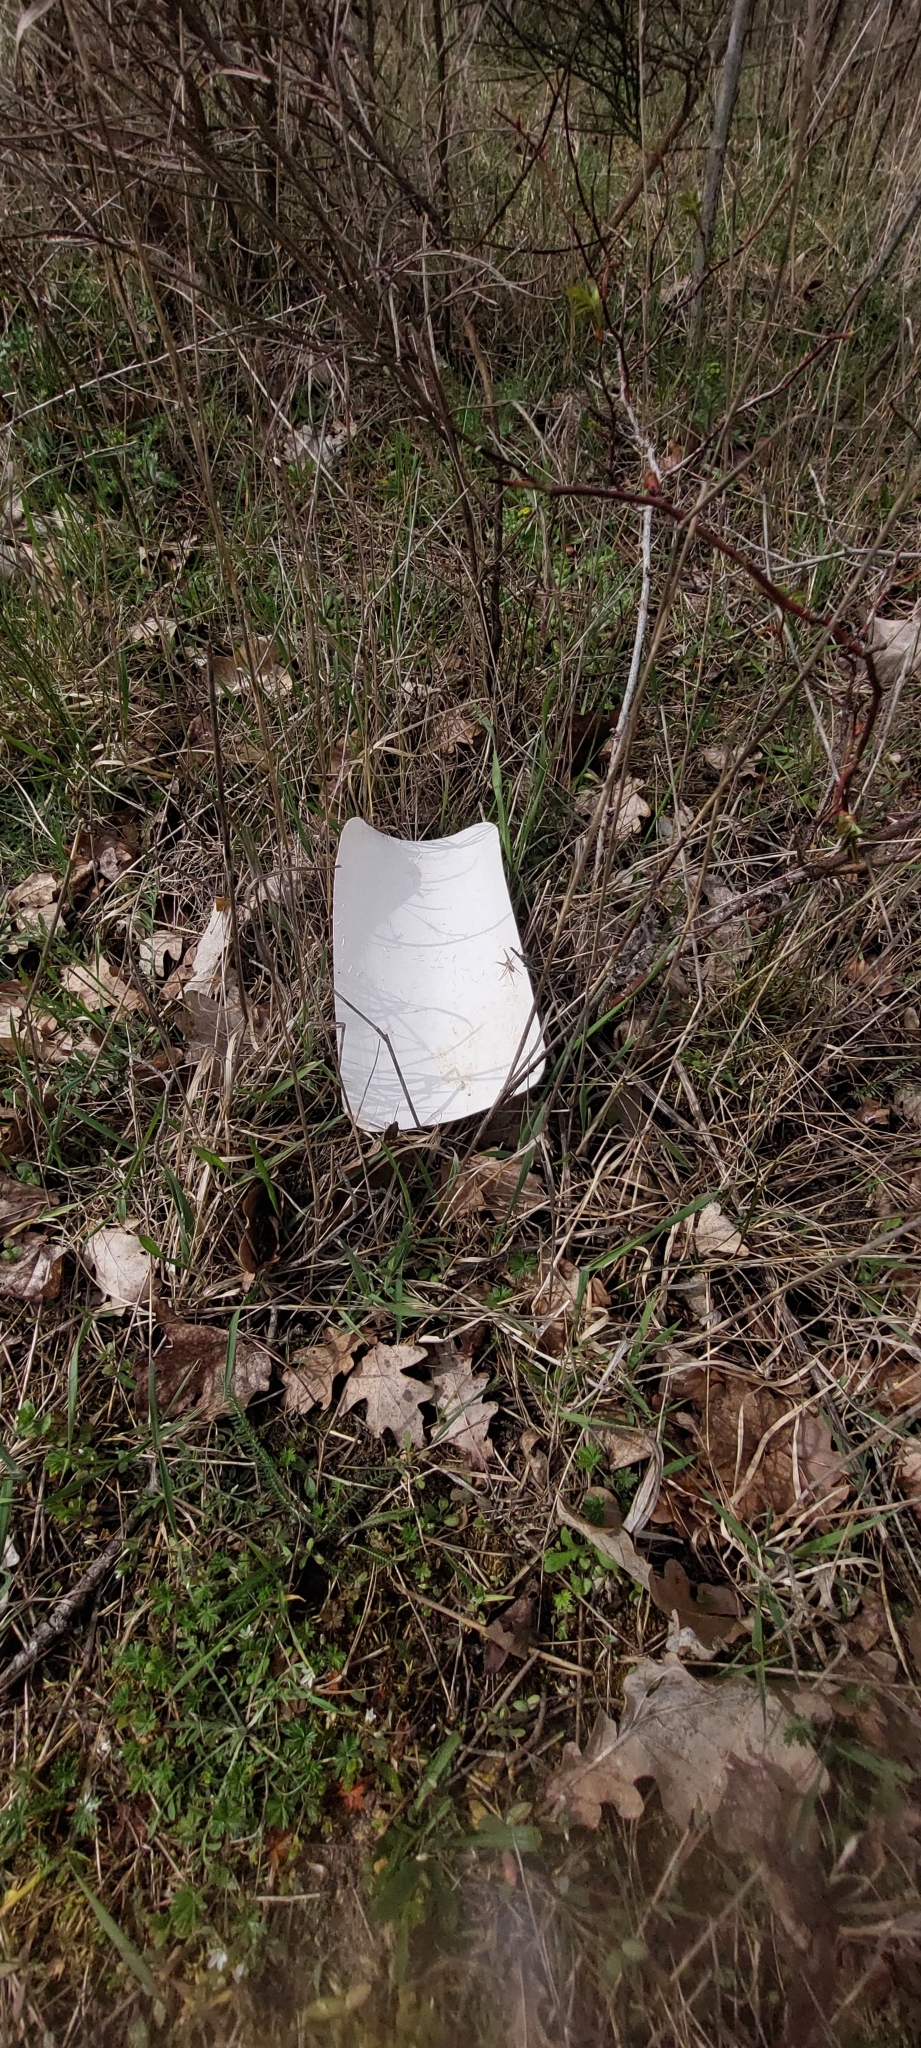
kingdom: Animalia
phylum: Arthropoda
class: Arachnida
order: Araneae
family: Pisauridae
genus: Pisaura
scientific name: Pisaura mirabilis
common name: Tent spider
